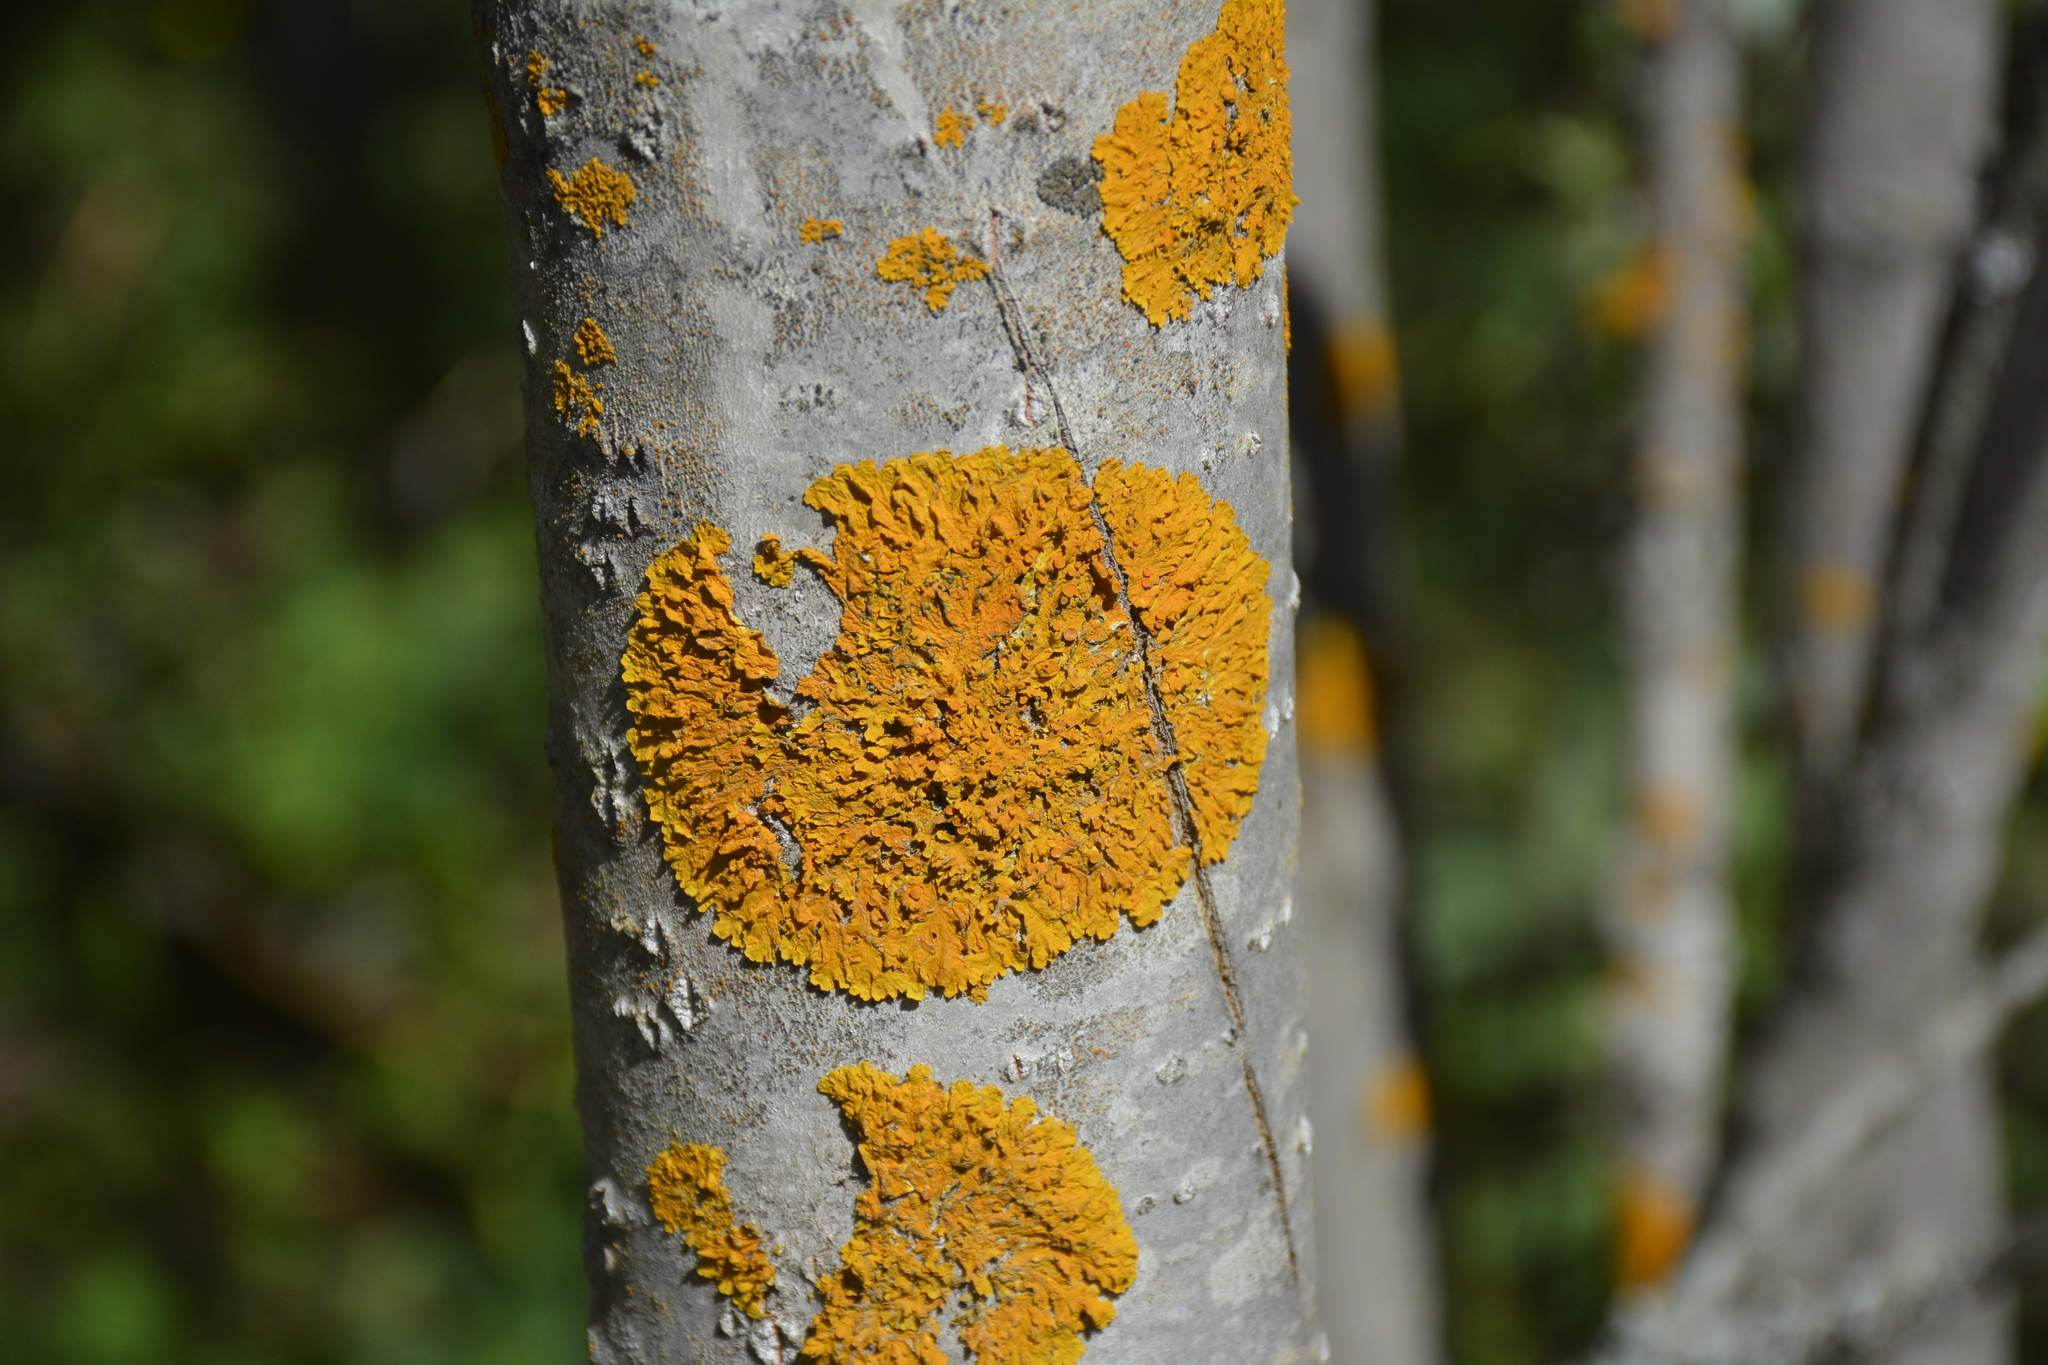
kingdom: Fungi
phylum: Ascomycota
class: Lecanoromycetes
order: Teloschistales
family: Teloschistaceae
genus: Xanthoria
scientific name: Xanthoria parietina
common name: Common orange lichen
